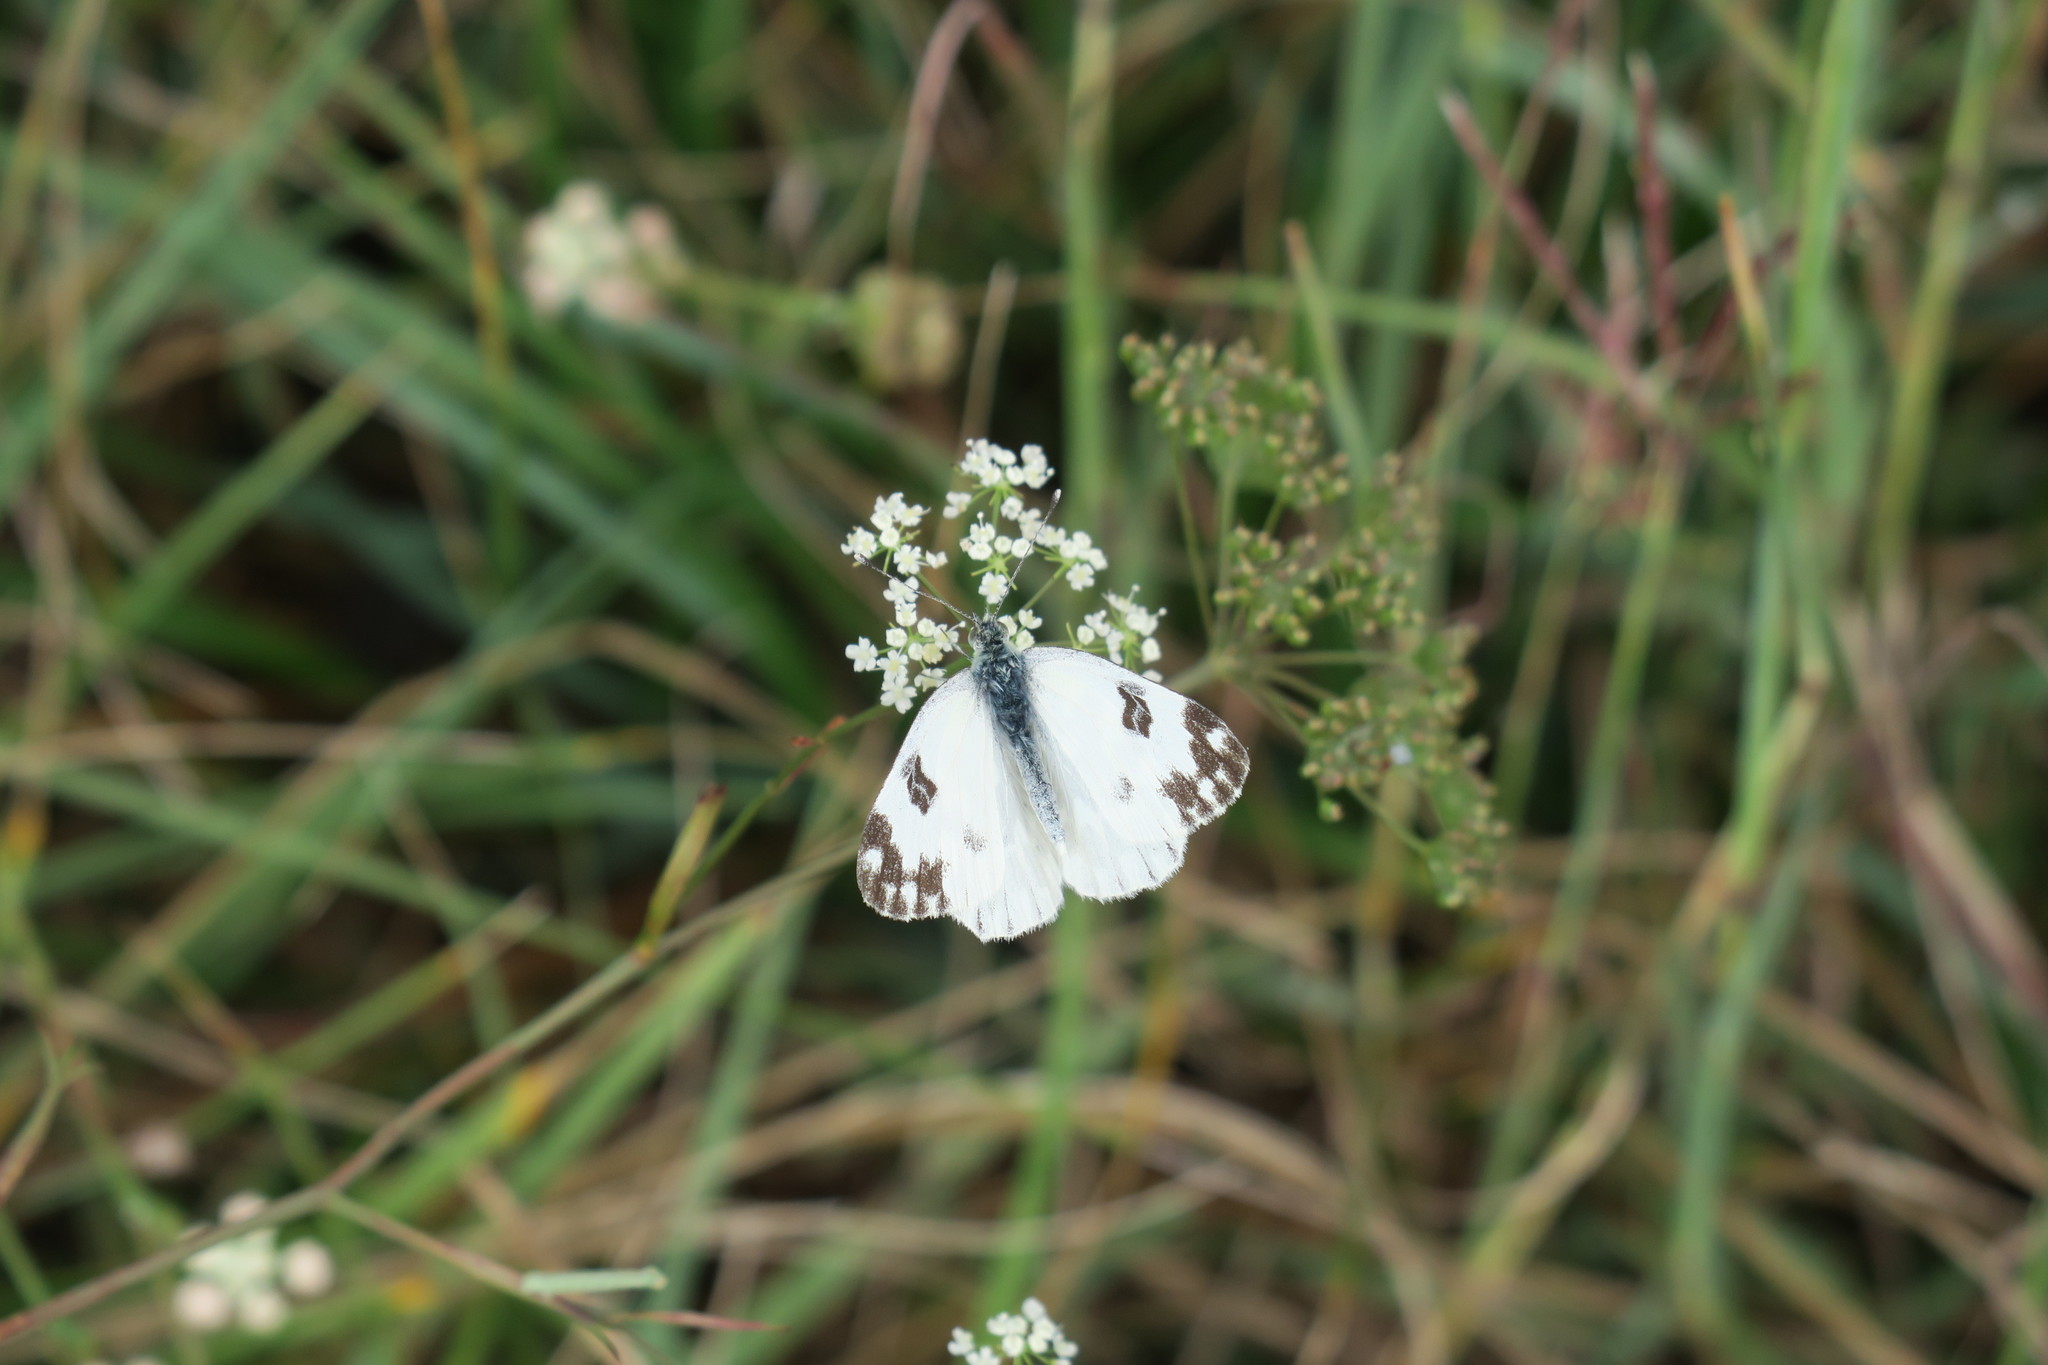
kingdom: Animalia
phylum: Arthropoda
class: Insecta
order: Lepidoptera
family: Pieridae
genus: Pontia
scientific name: Pontia edusa
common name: Eastern bath white
